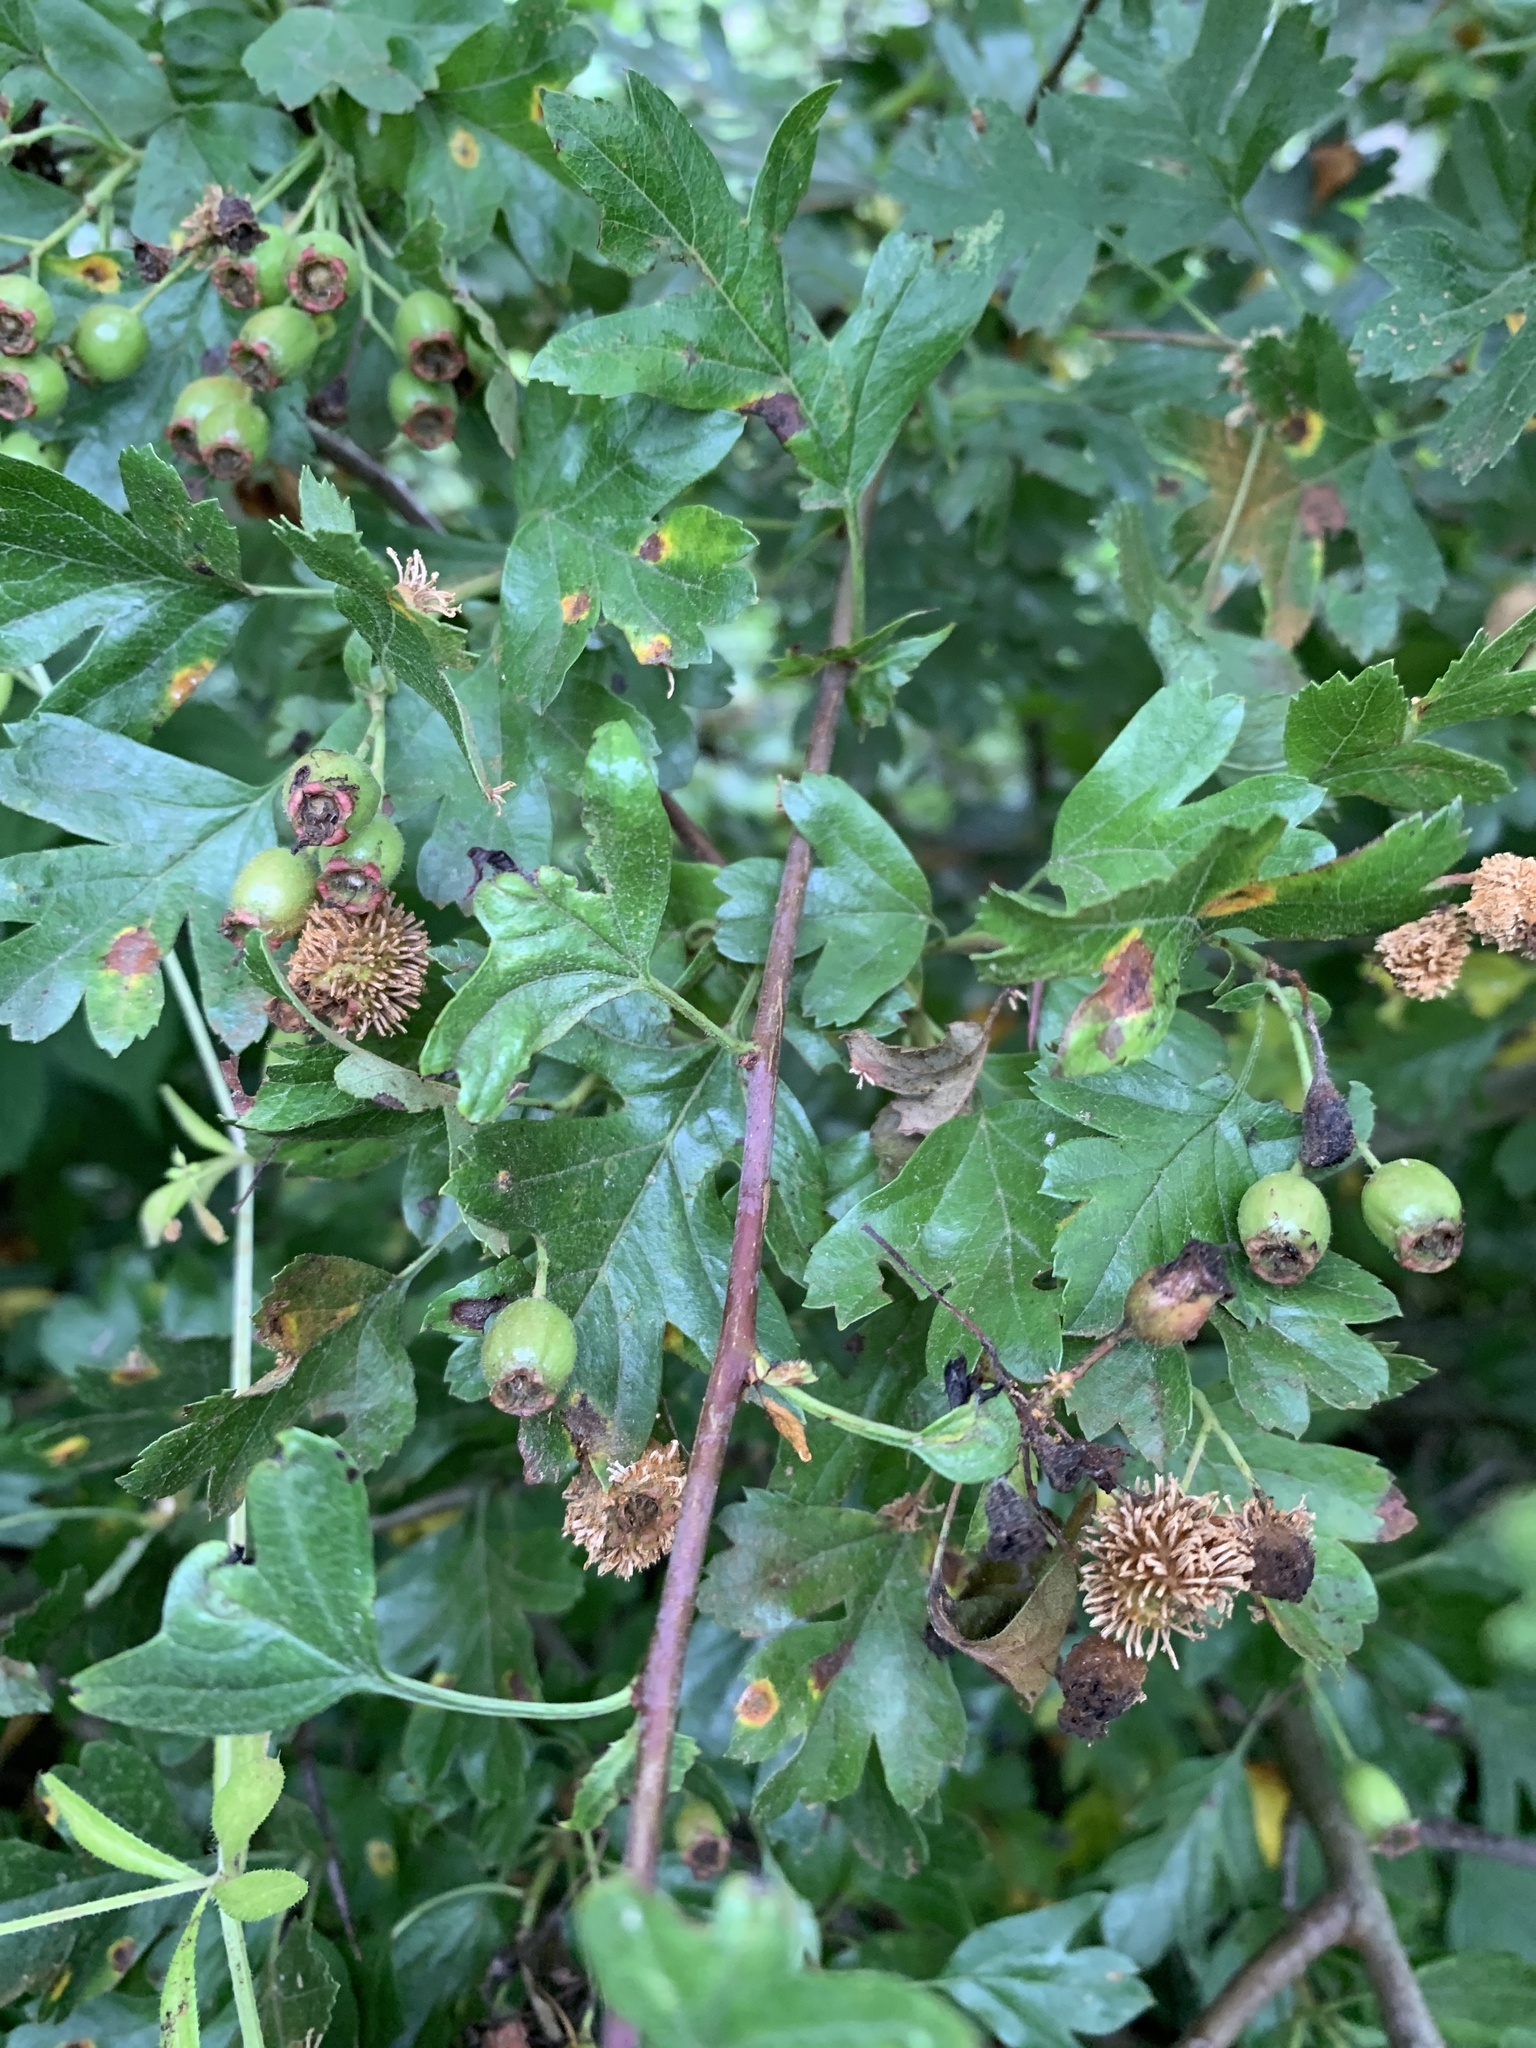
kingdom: Fungi
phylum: Basidiomycota
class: Pucciniomycetes
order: Pucciniales
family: Gymnosporangiaceae
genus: Gymnosporangium
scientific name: Gymnosporangium clavariiforme
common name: Tongues of fire
